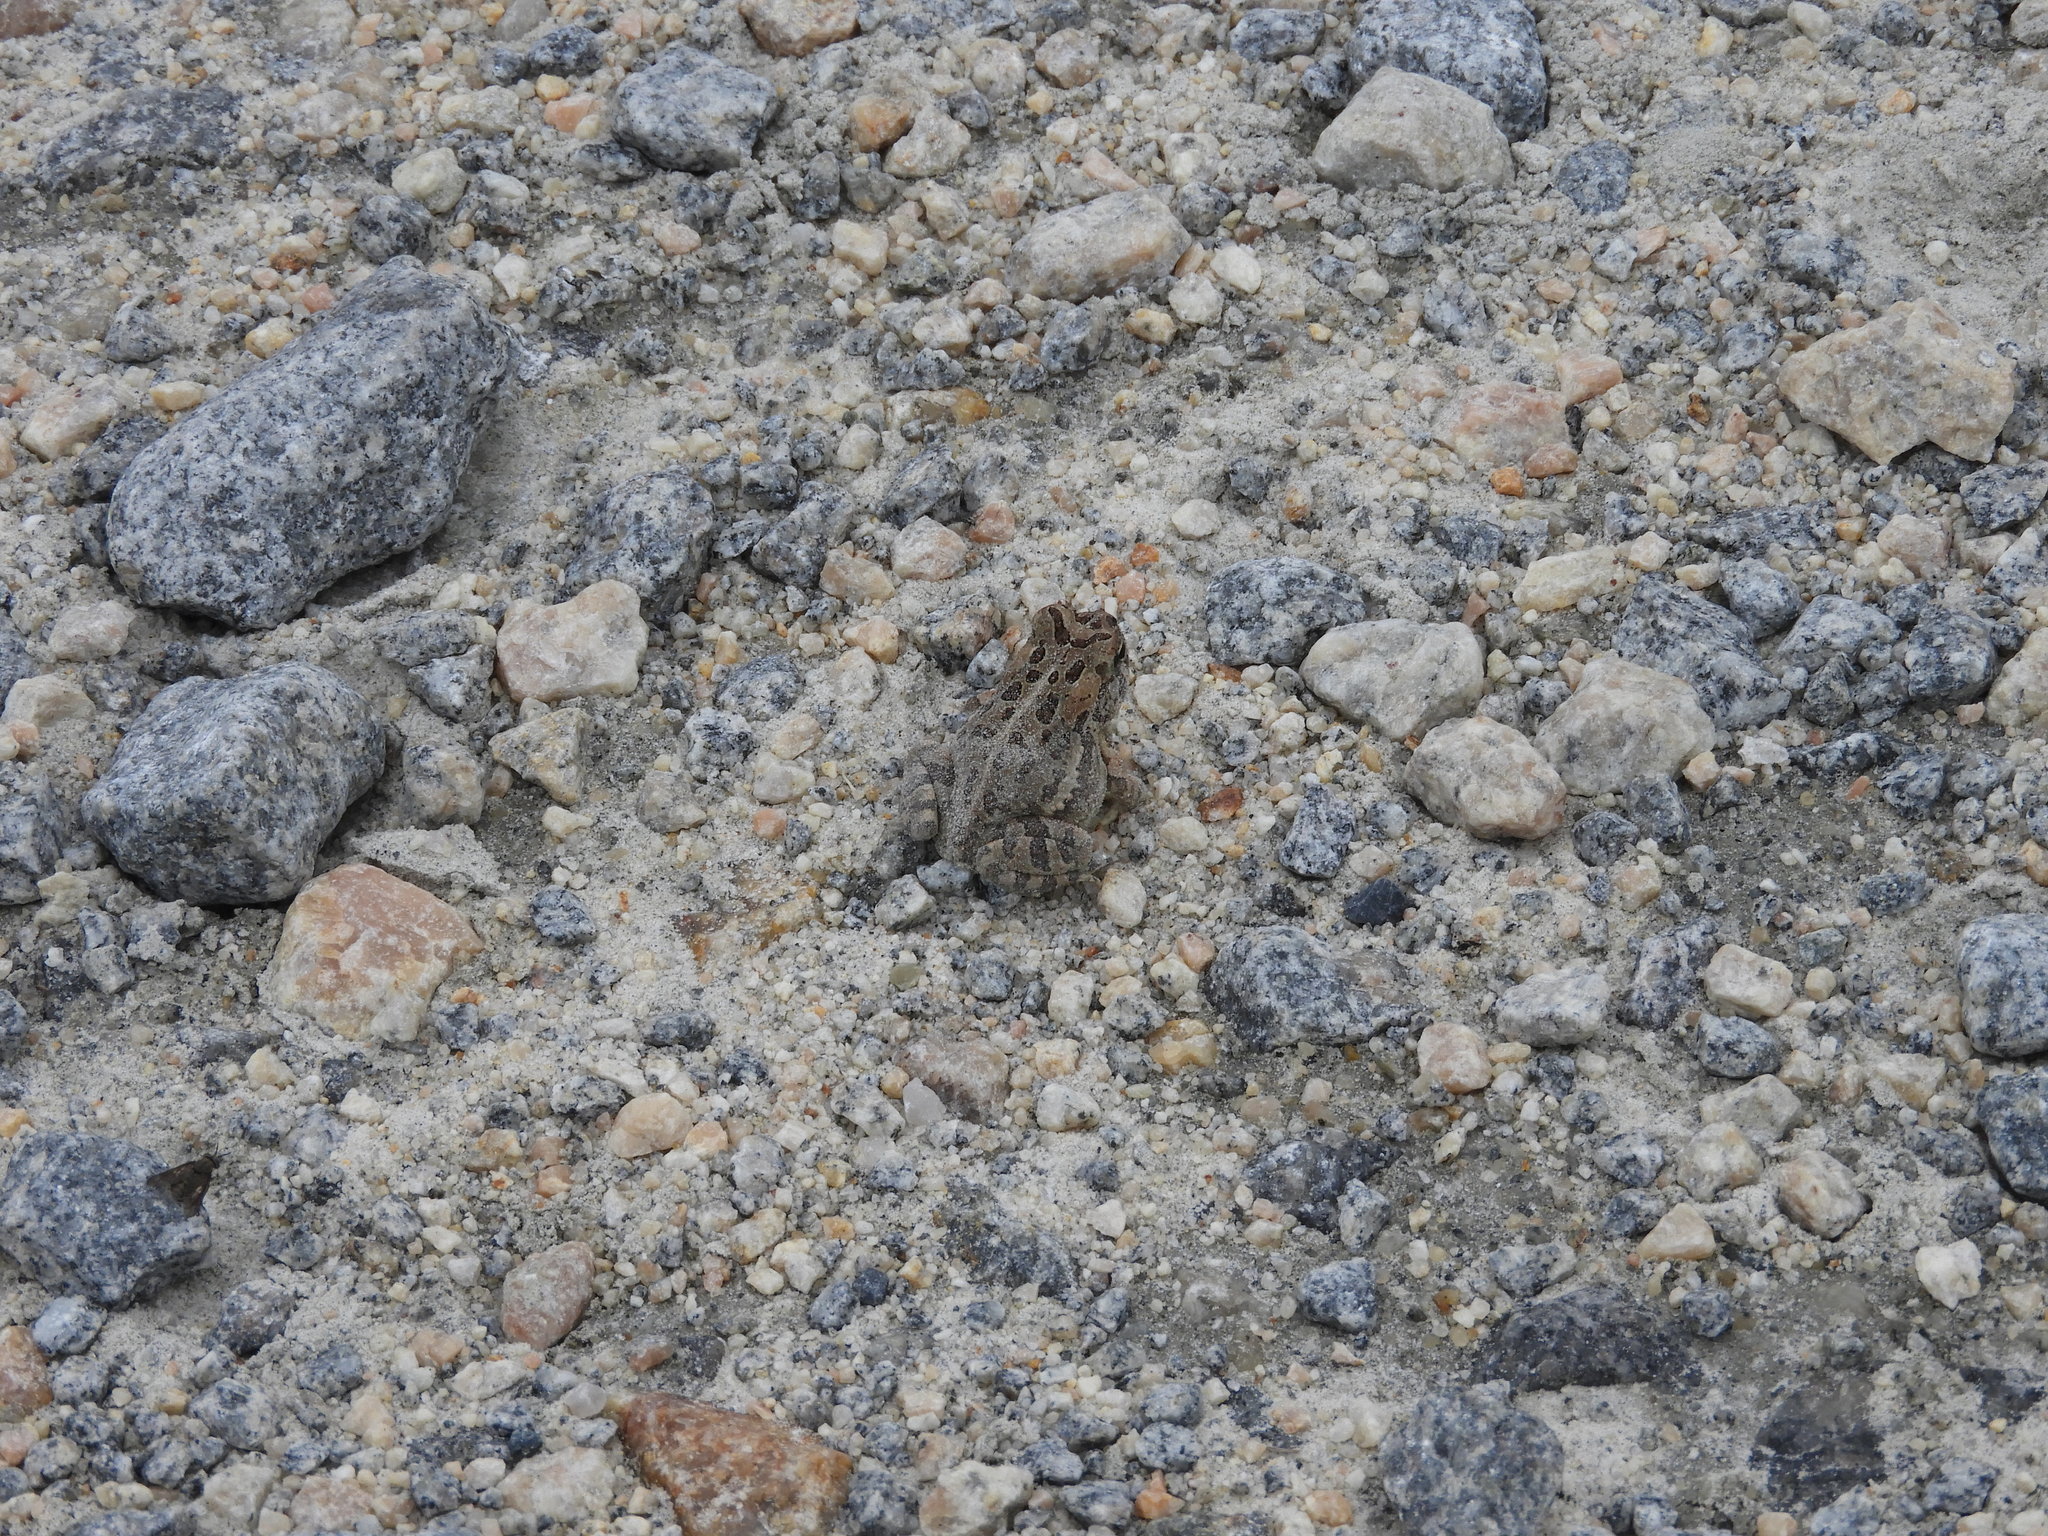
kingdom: Animalia
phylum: Chordata
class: Amphibia
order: Anura
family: Bufonidae
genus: Anaxyrus
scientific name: Anaxyrus fowleri
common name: Fowler's toad
